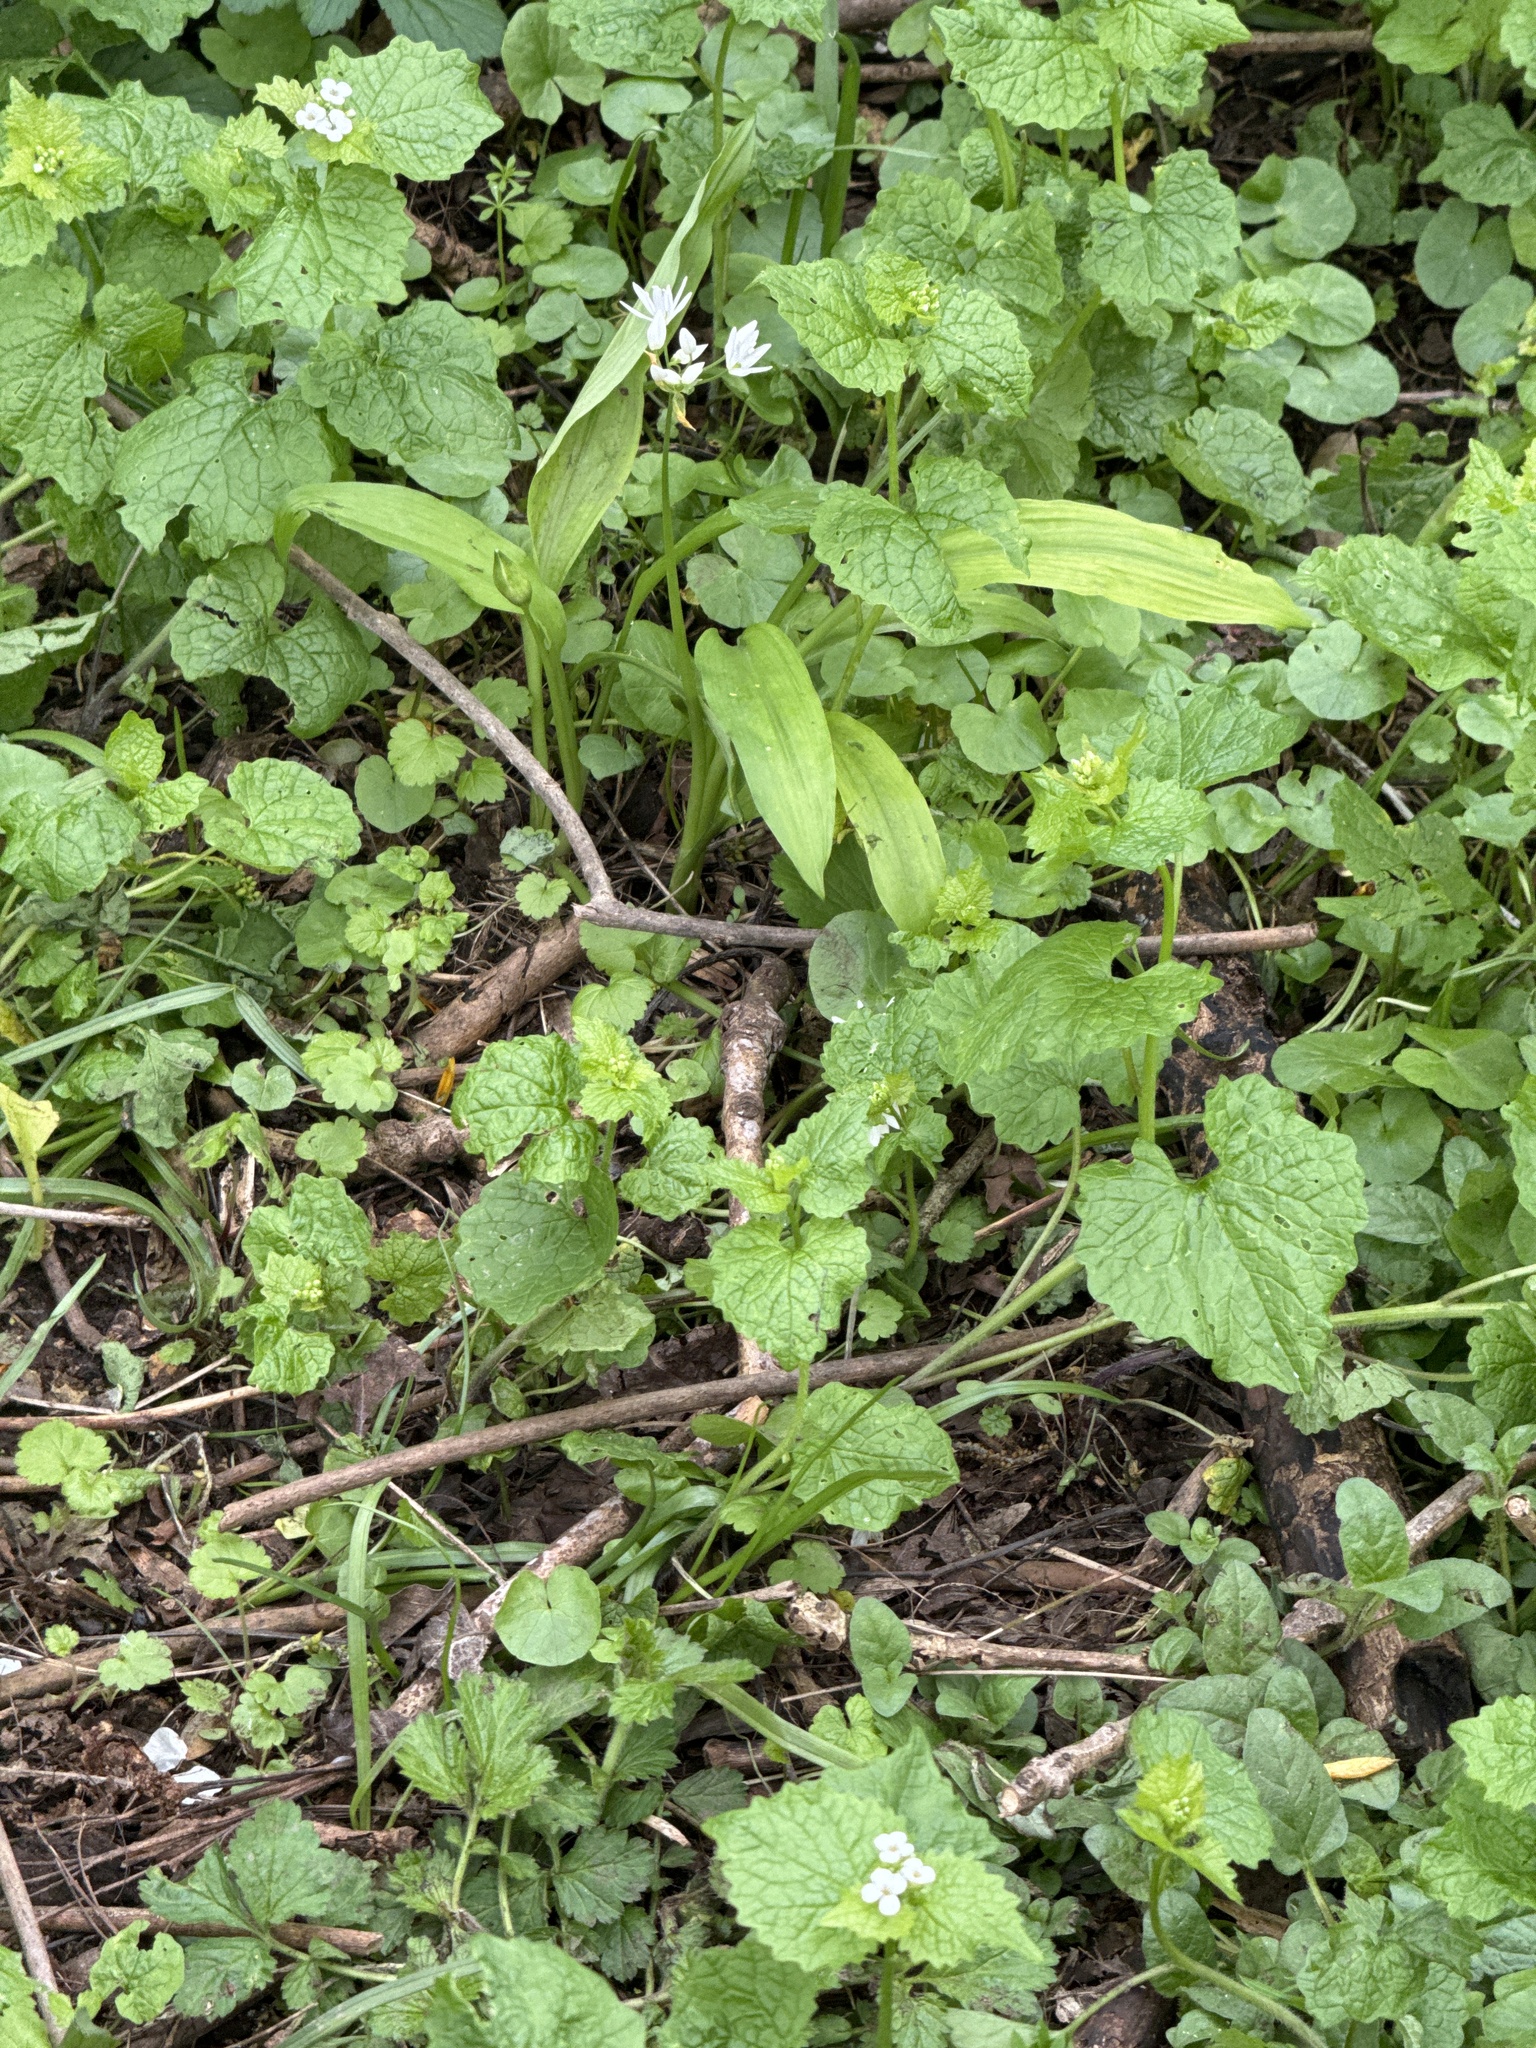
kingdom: Plantae
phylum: Tracheophyta
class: Liliopsida
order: Asparagales
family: Amaryllidaceae
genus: Allium
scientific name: Allium ursinum
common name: Ramsons
